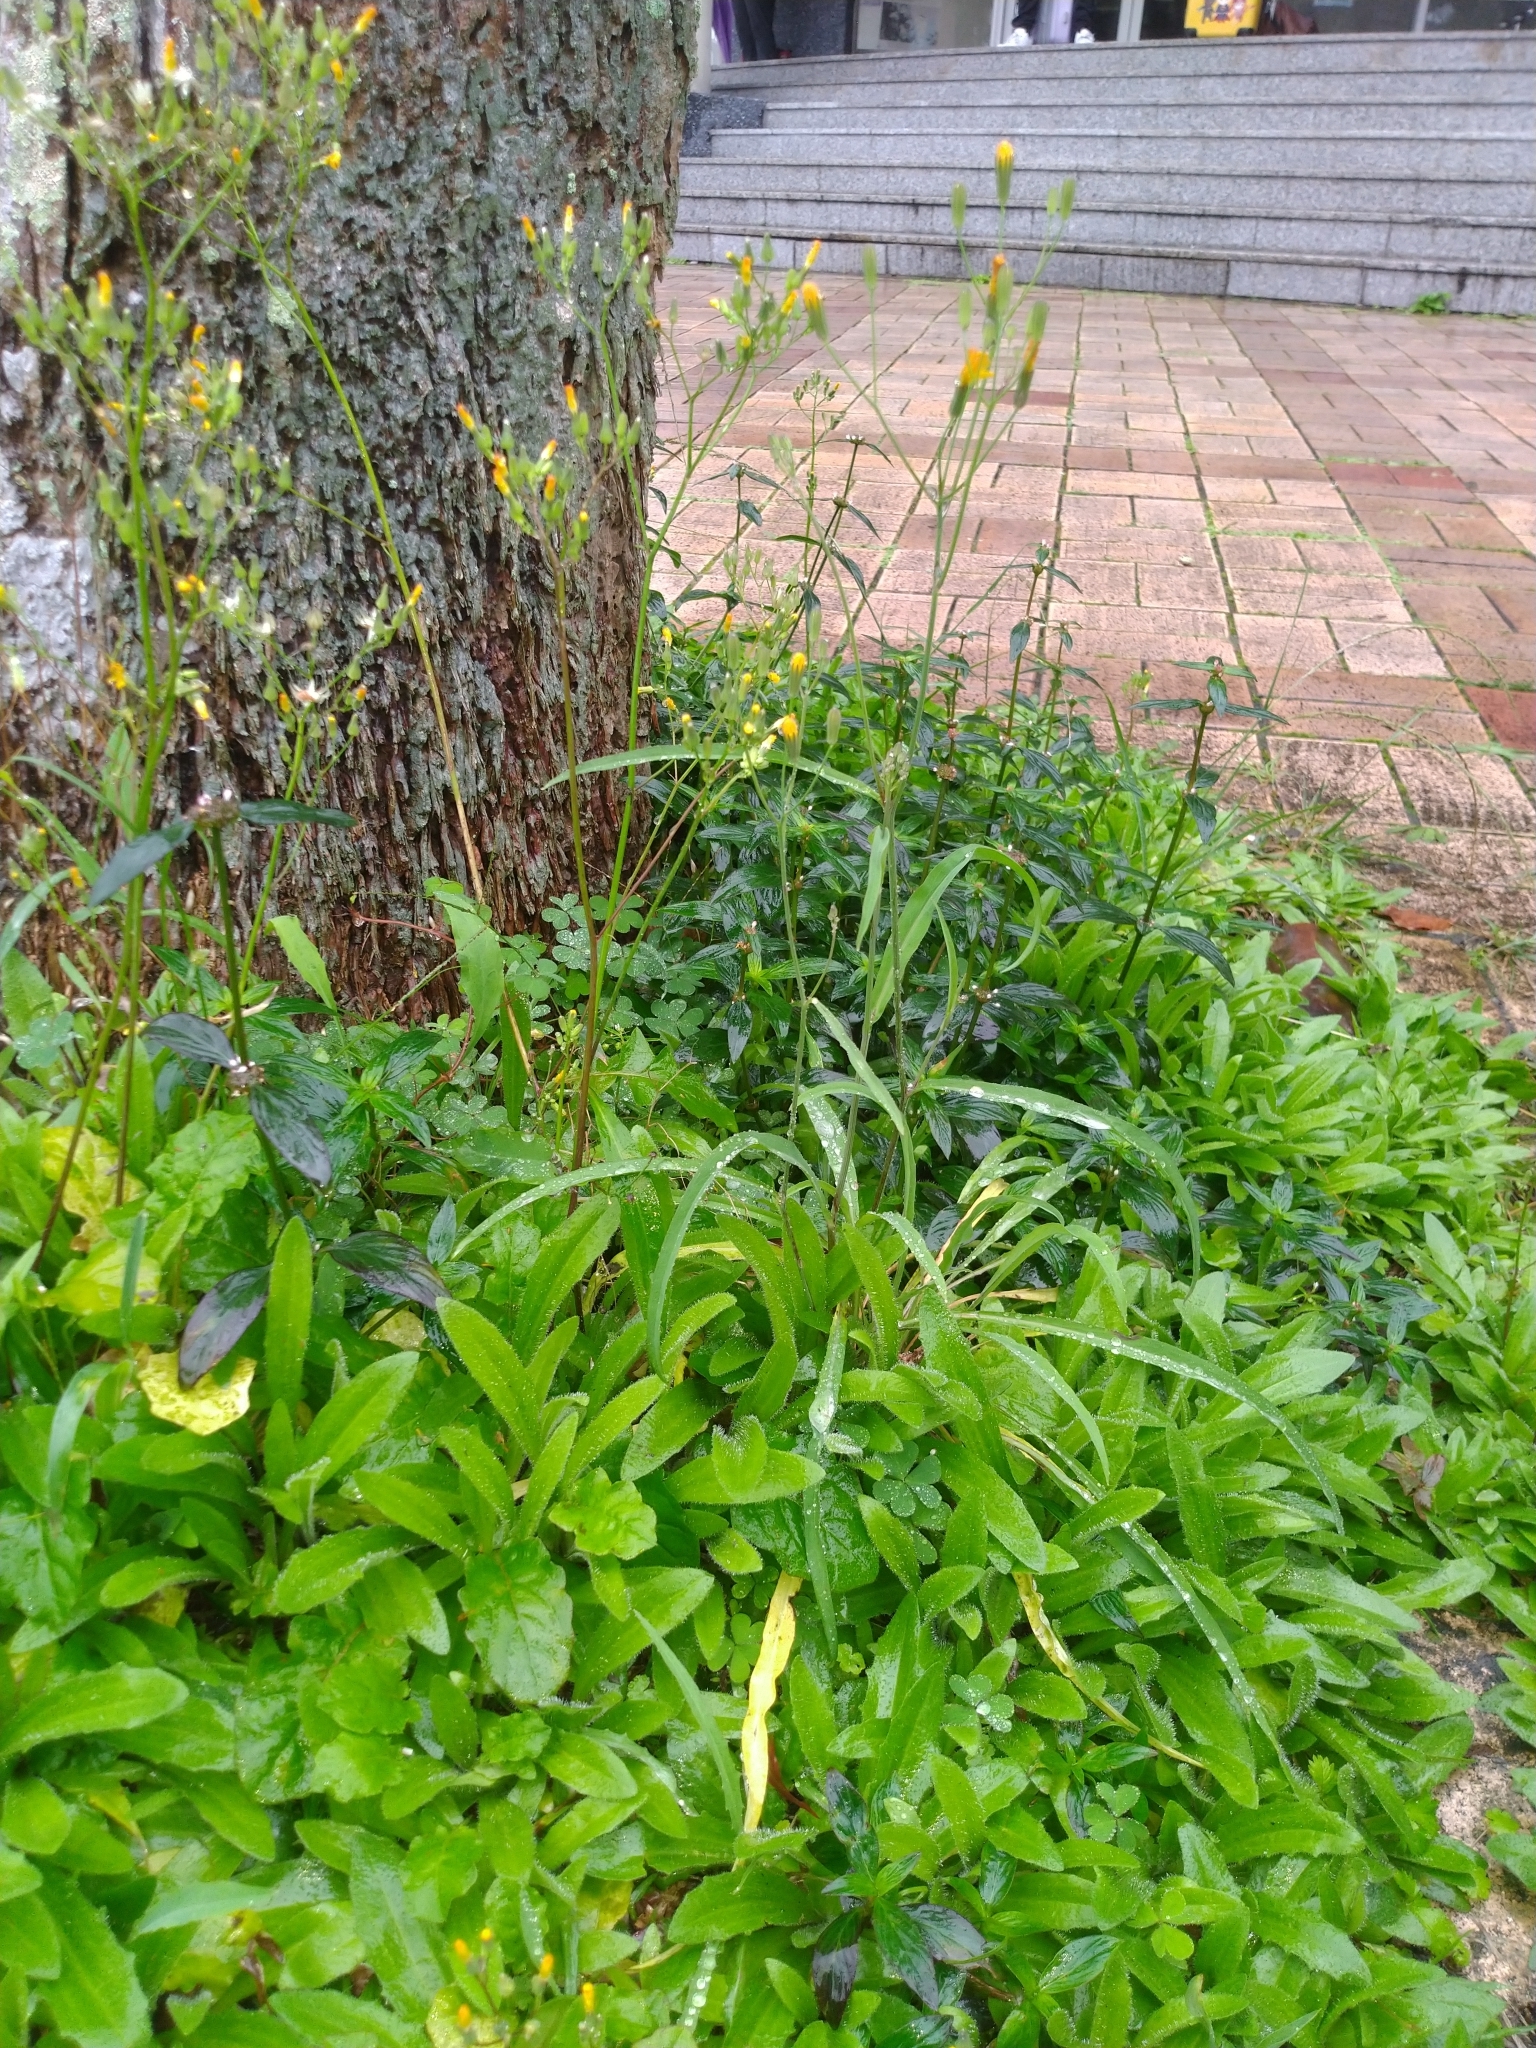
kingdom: Plantae
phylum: Tracheophyta
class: Magnoliopsida
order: Asterales
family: Asteraceae
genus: Ixeris
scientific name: Ixeris chinensis
